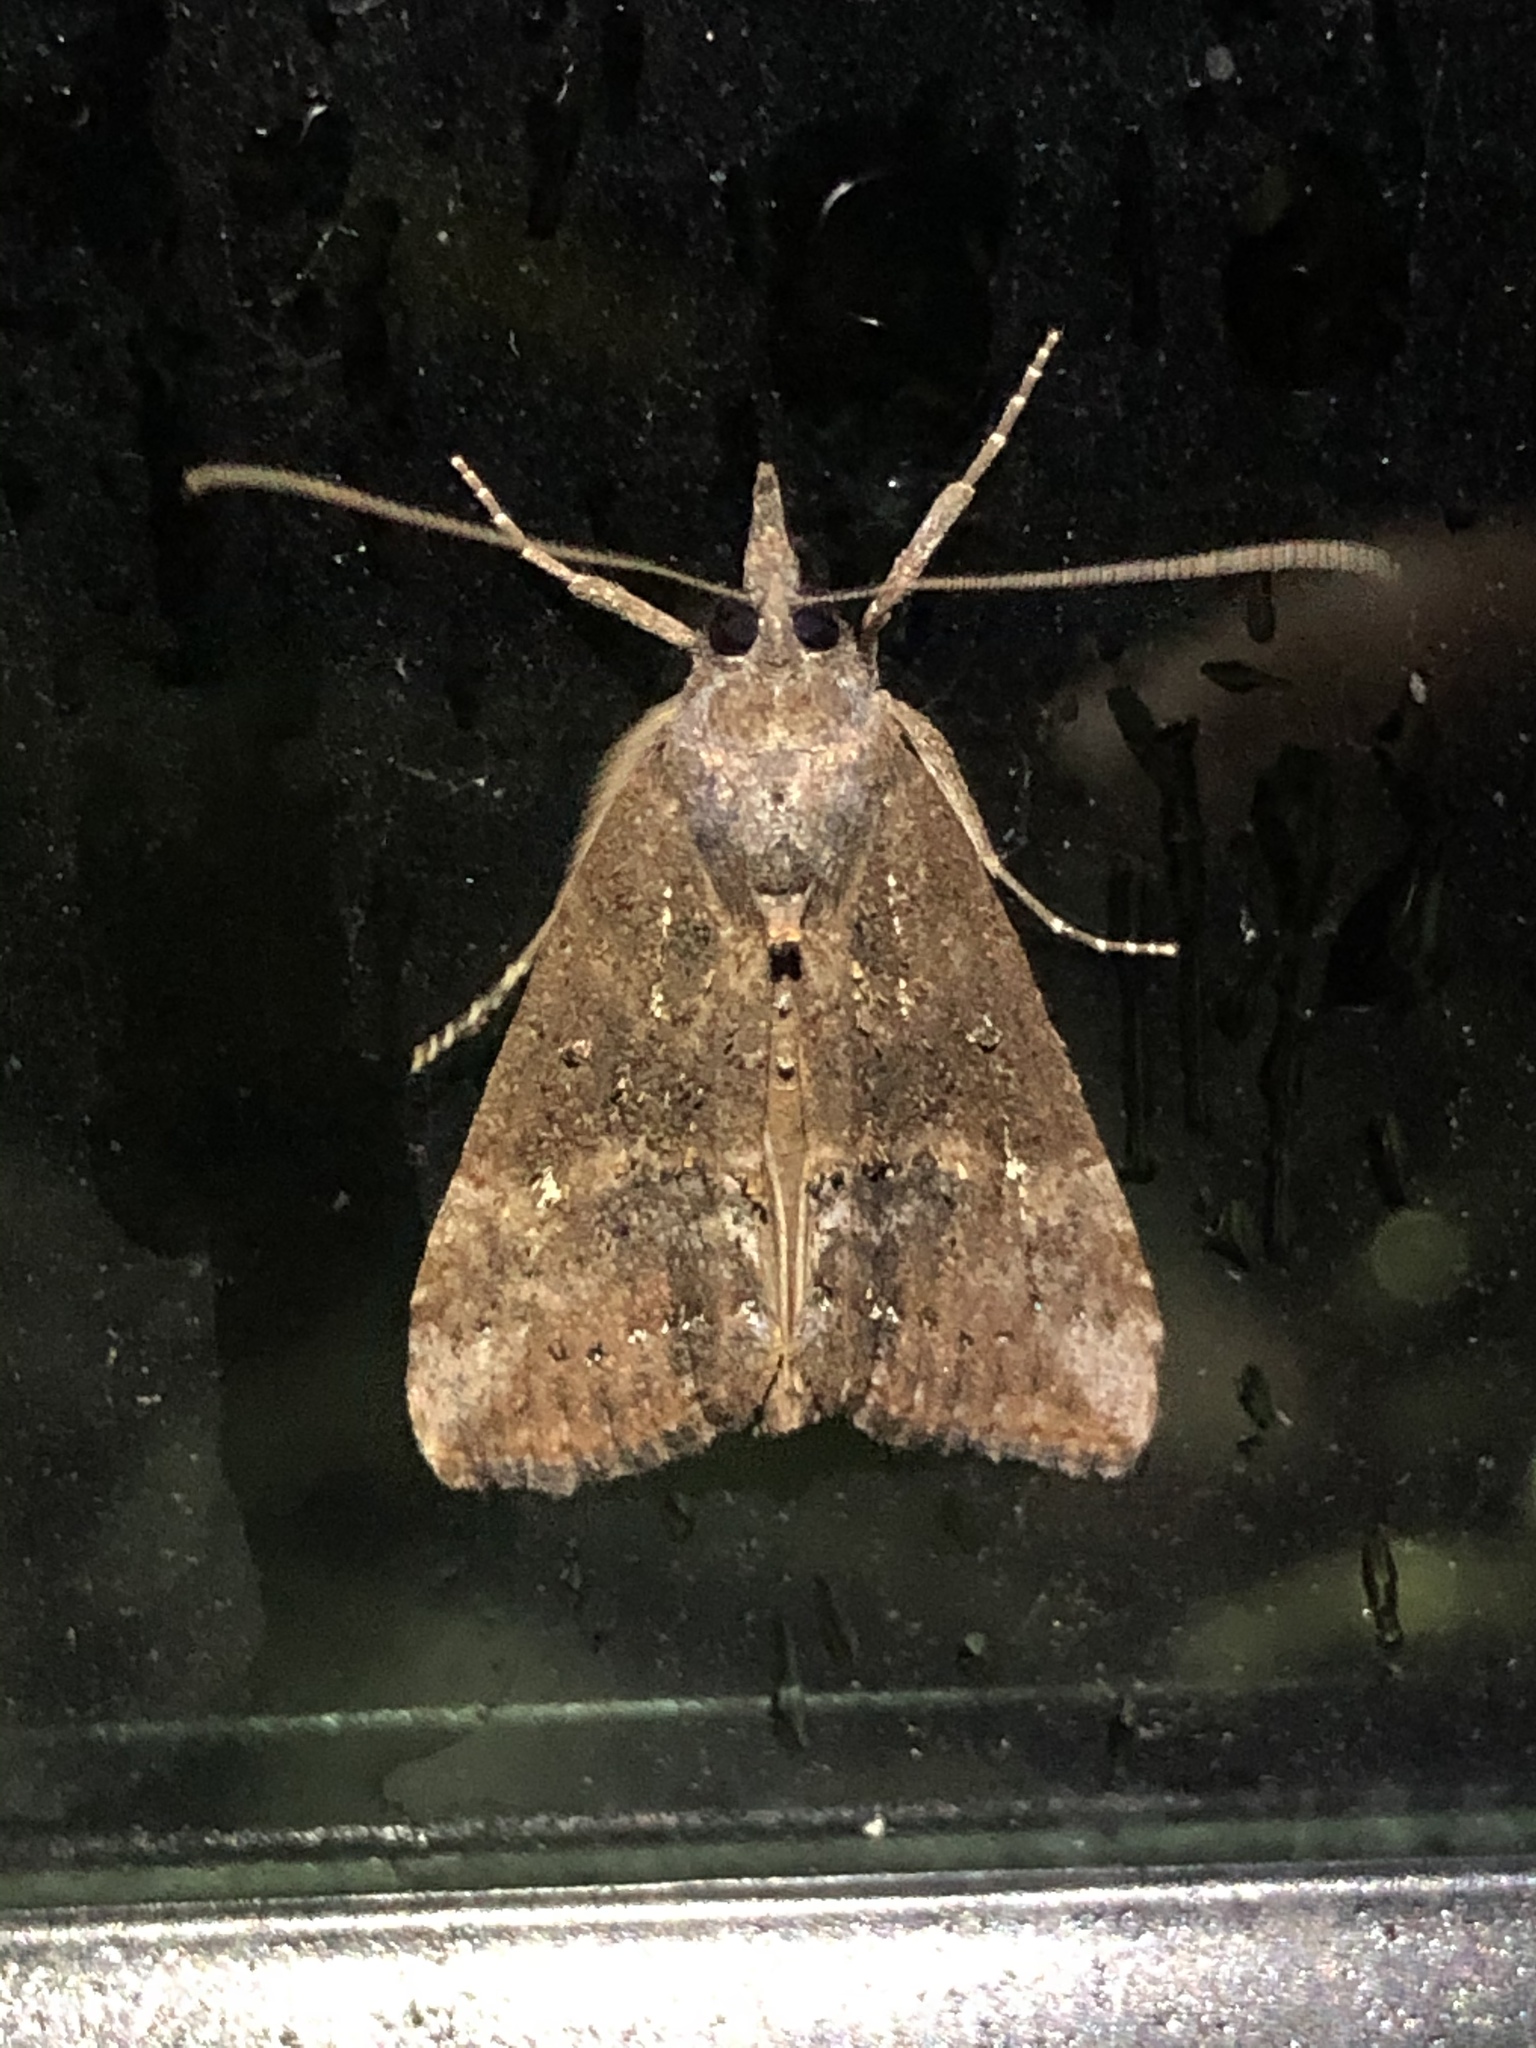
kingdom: Animalia
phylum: Arthropoda
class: Insecta
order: Lepidoptera
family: Erebidae
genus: Hypena
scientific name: Hypena scabra
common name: Green cloverworm
